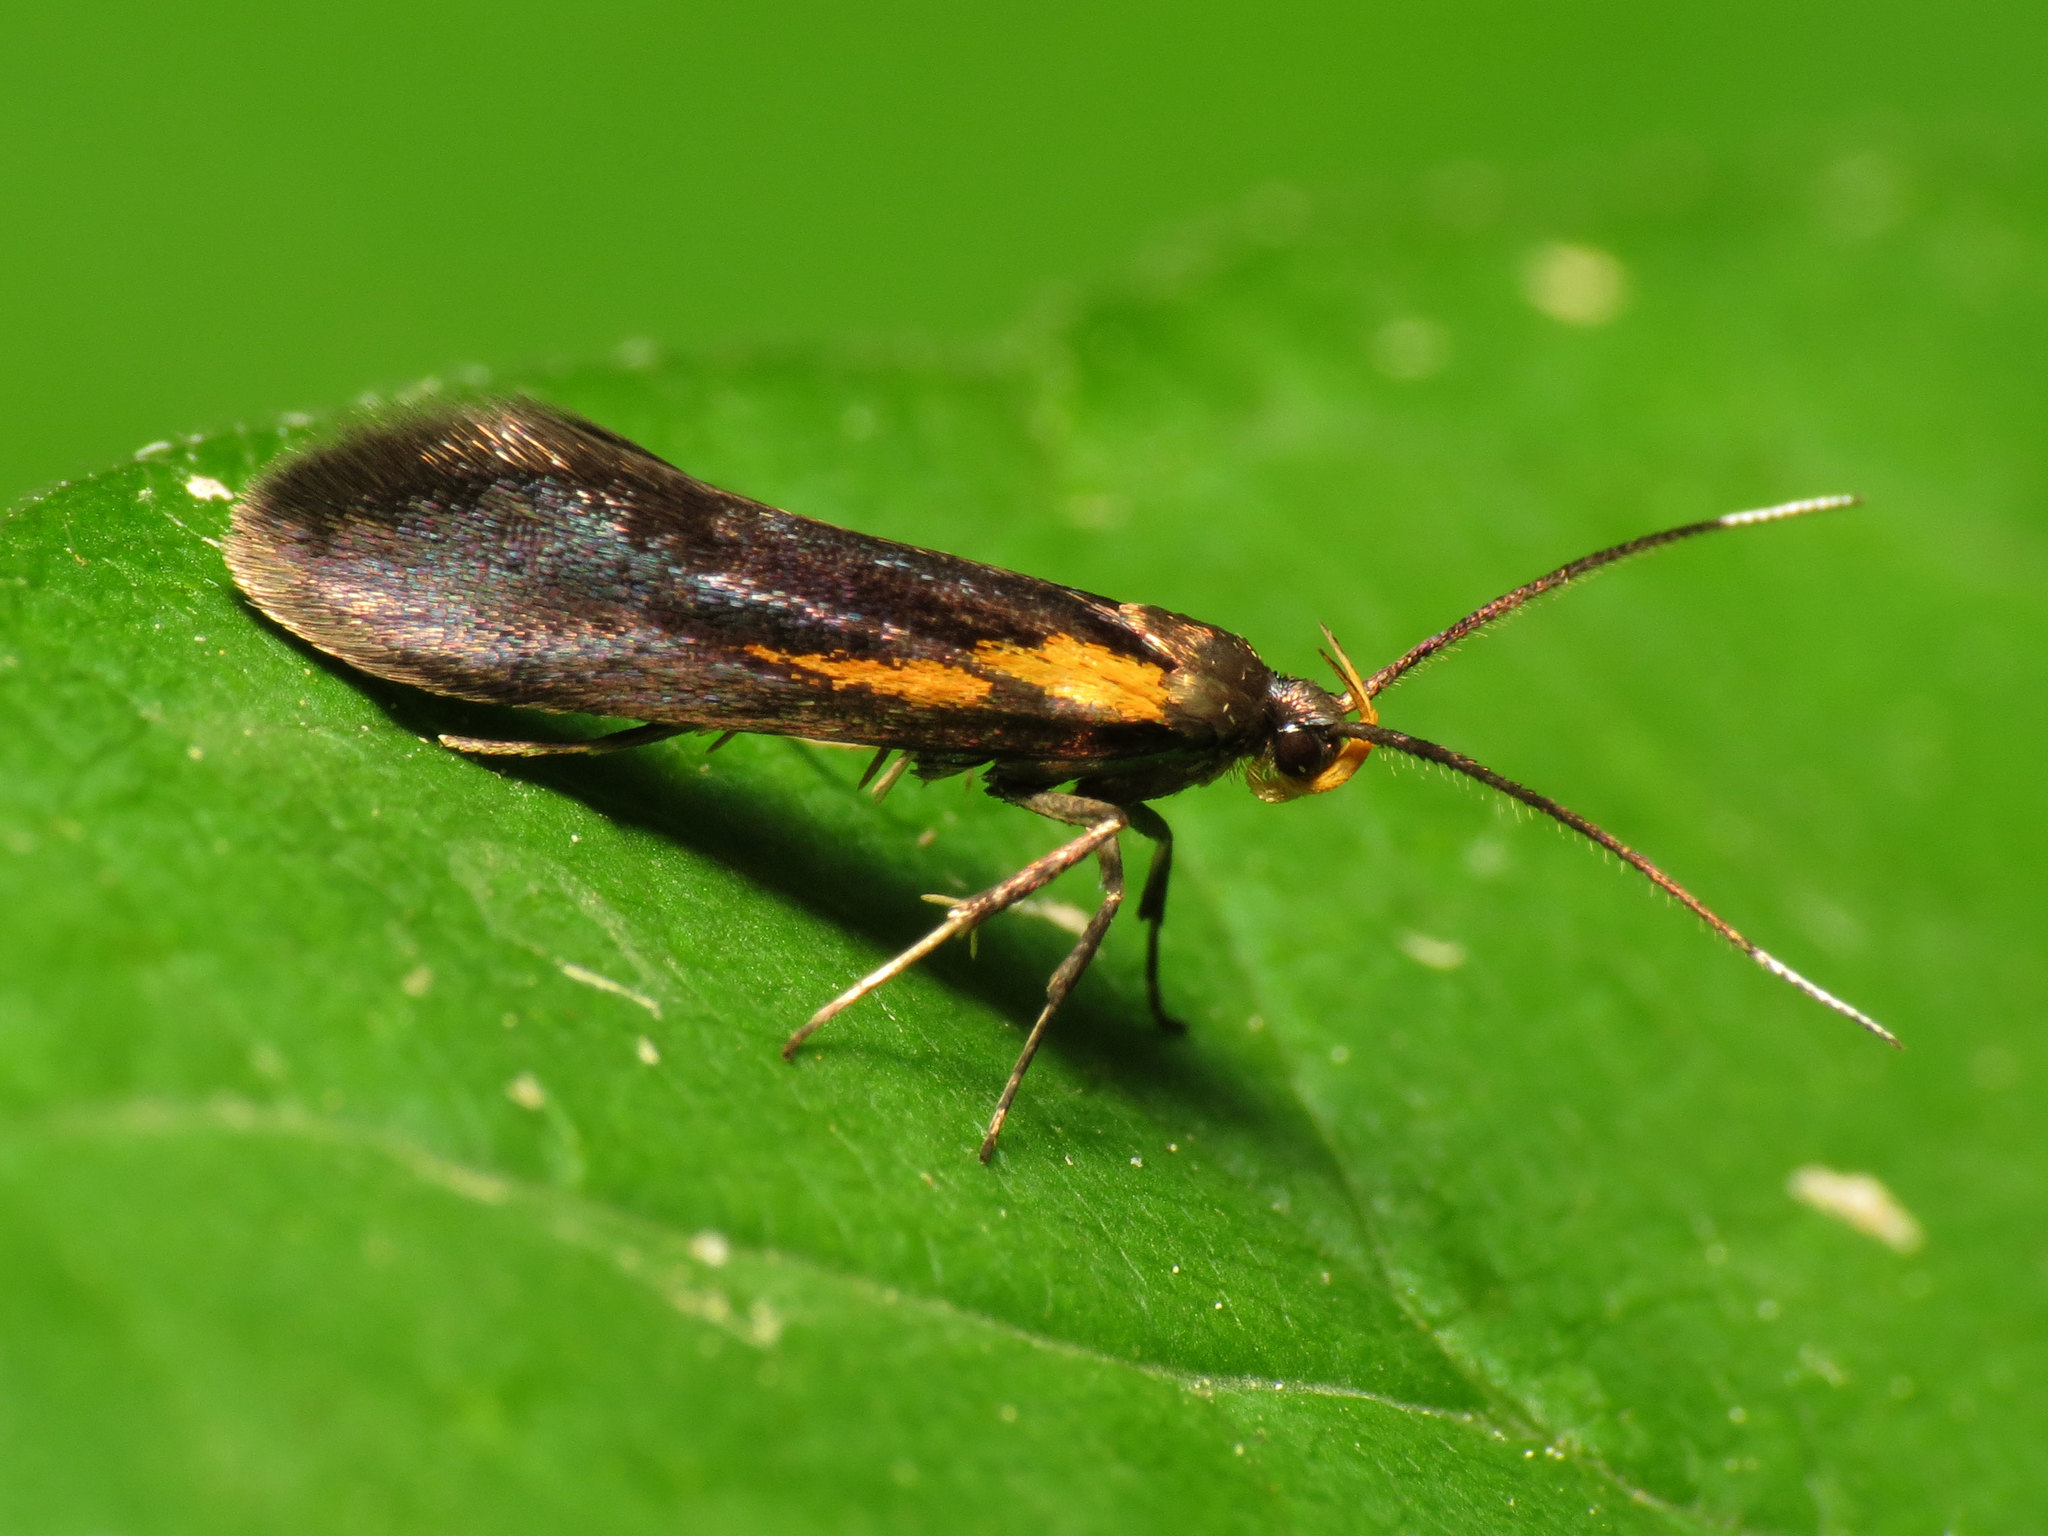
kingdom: Animalia
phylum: Arthropoda
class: Insecta
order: Lepidoptera
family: Oecophoridae
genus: Mathildana
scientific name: Mathildana newmanella
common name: Newman's mathildana moth
